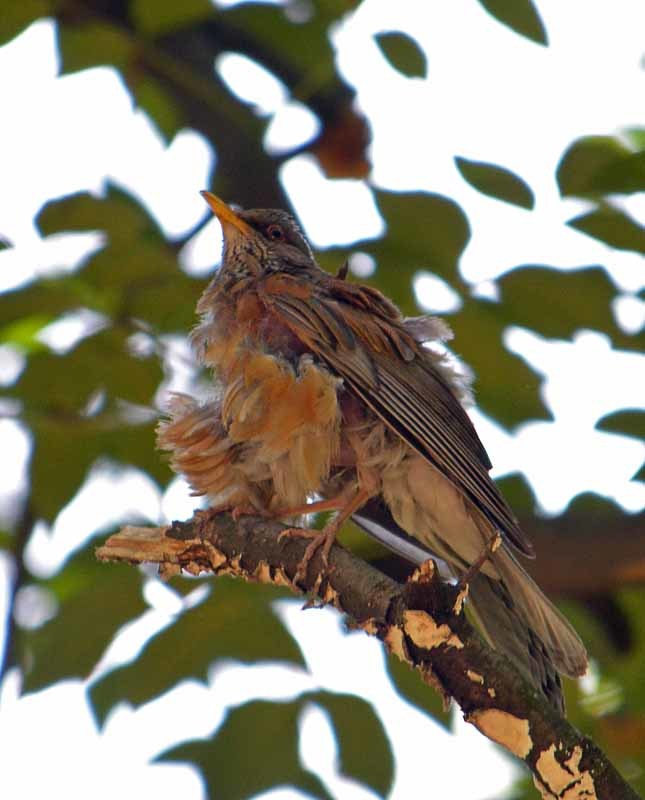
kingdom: Animalia
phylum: Chordata
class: Aves
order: Passeriformes
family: Turdidae
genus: Turdus
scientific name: Turdus rufopalliatus
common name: Rufous-backed robin
